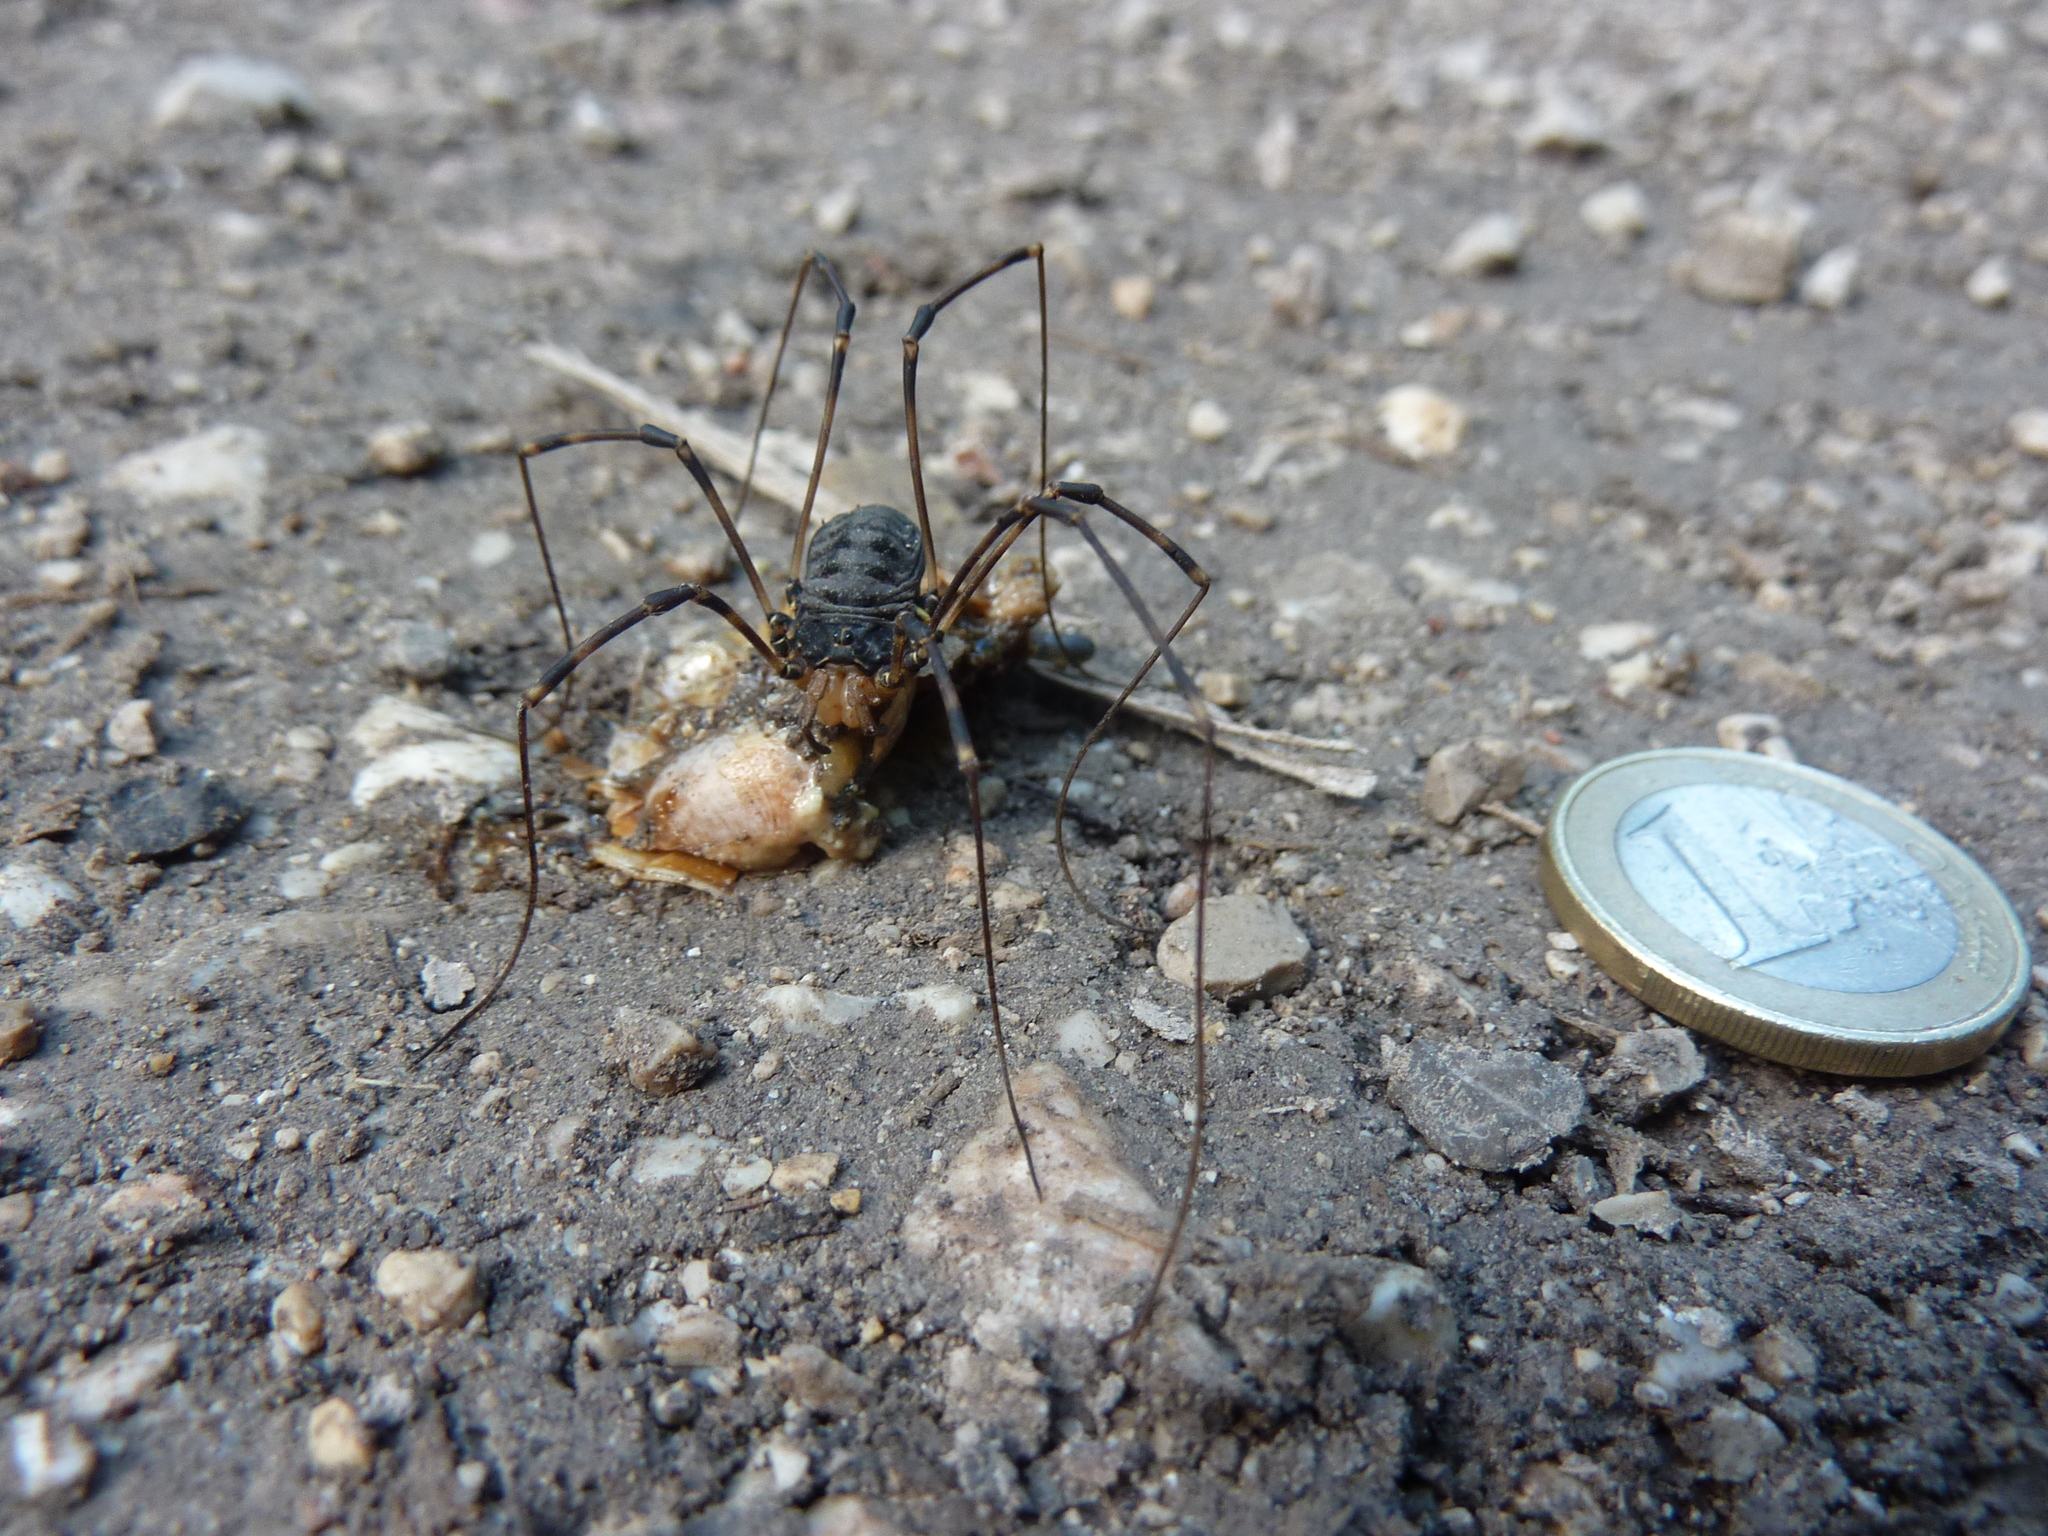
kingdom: Animalia
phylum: Arthropoda
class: Arachnida
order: Opiliones
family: Sclerosomatidae
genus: Gyas
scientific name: Gyas titanus
